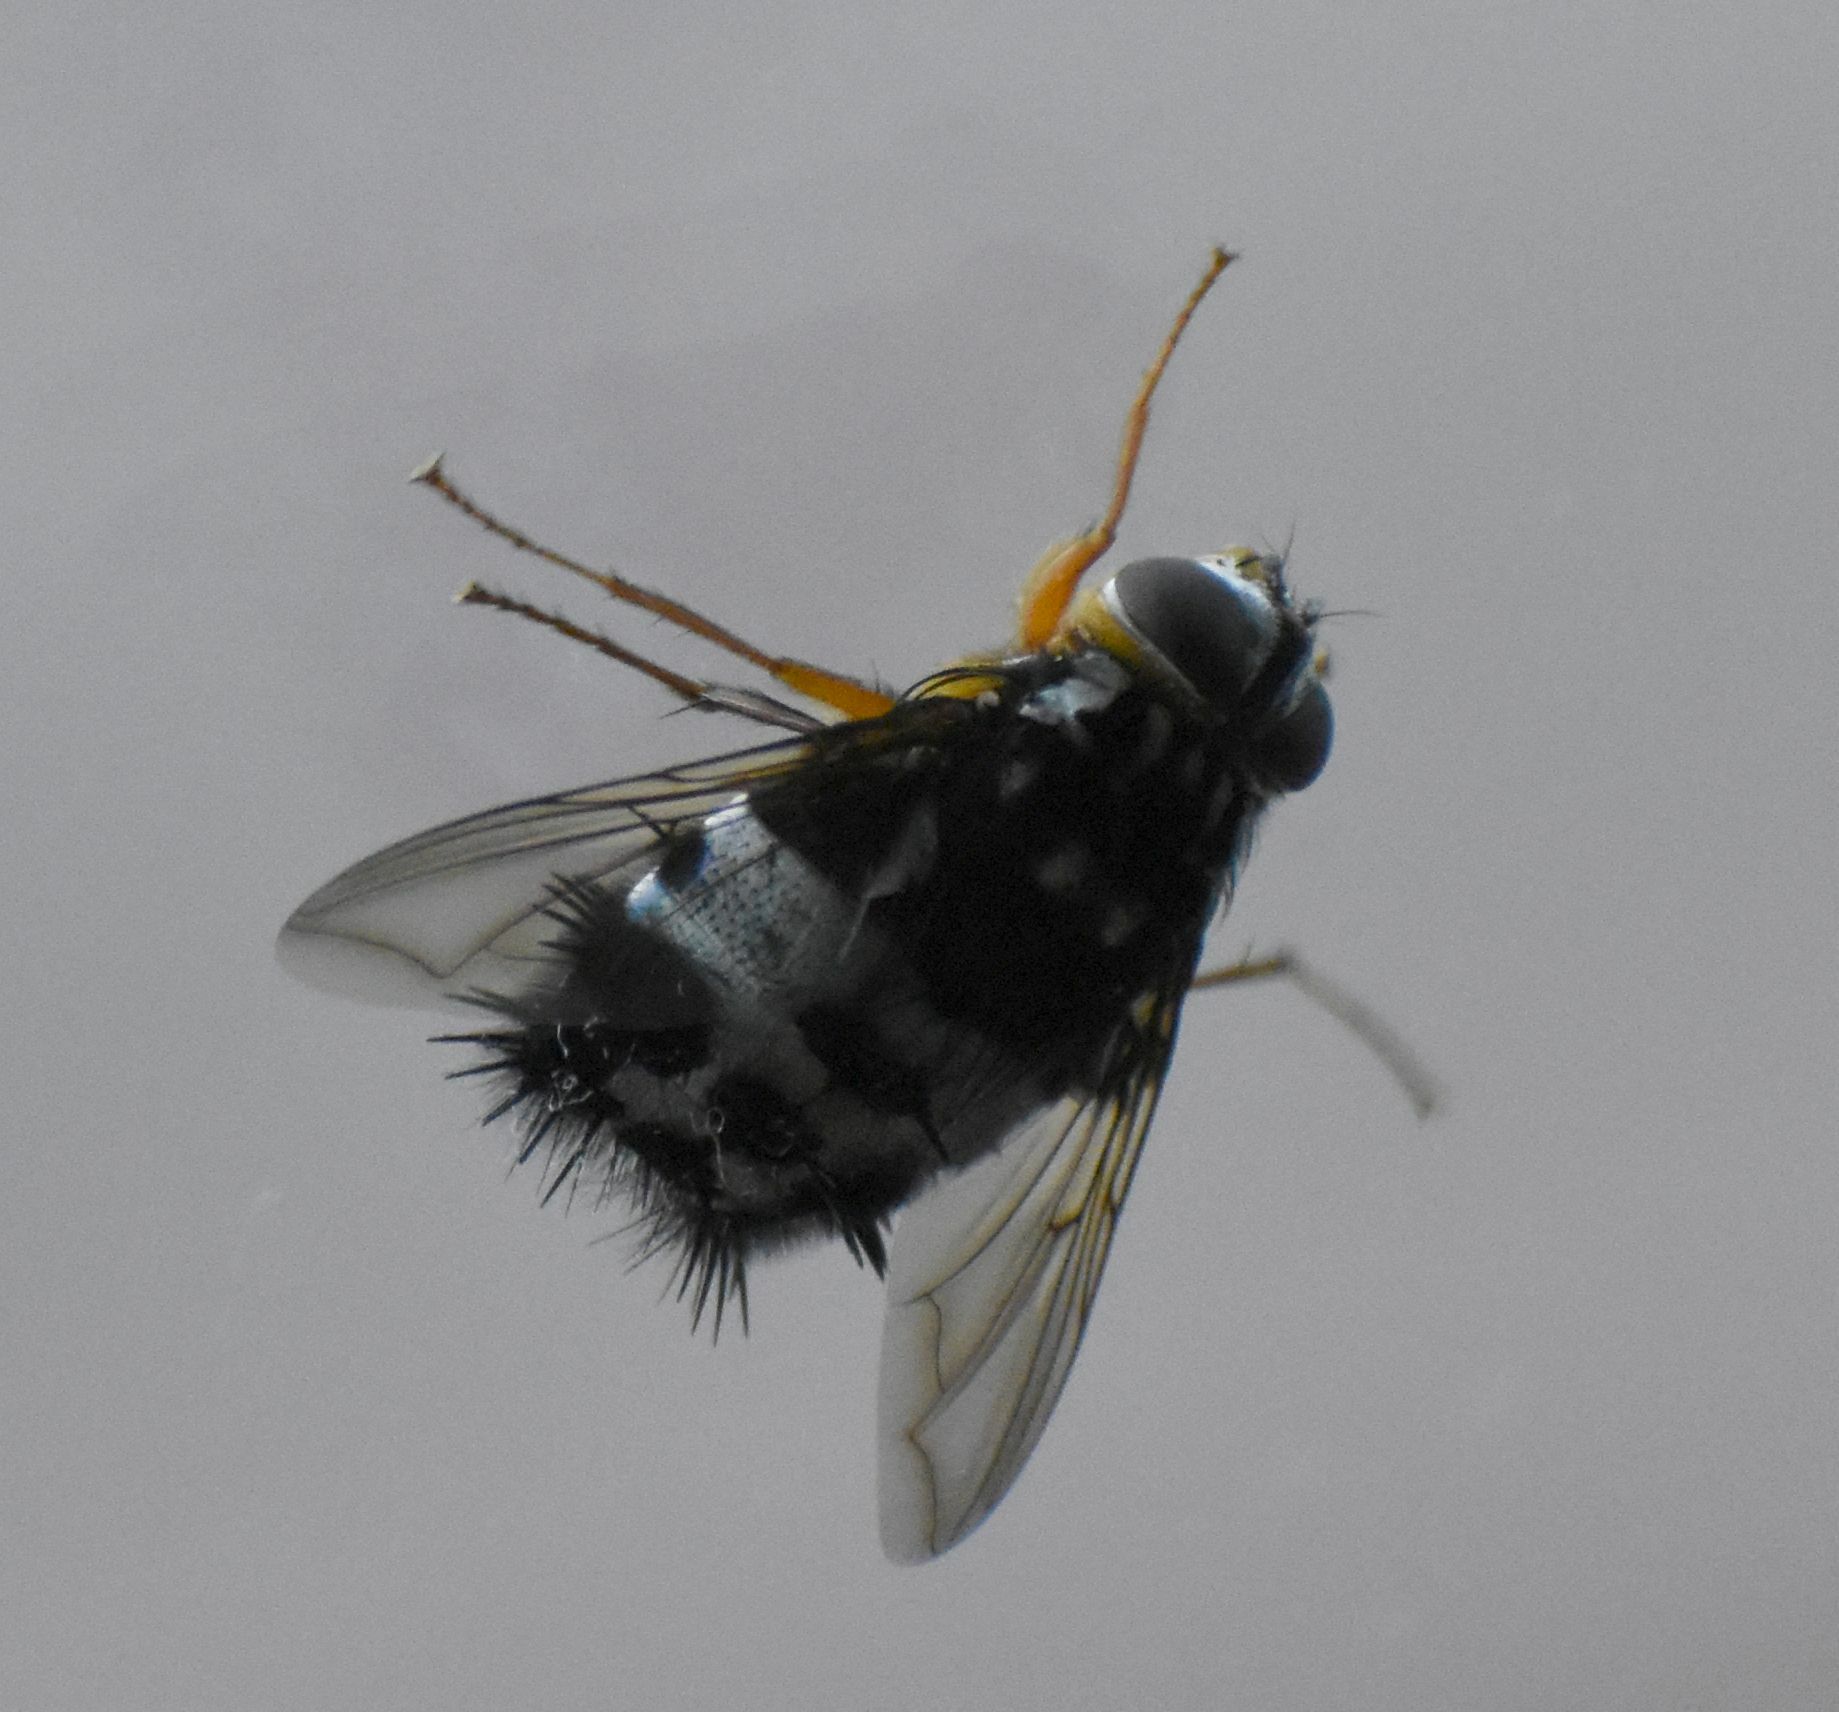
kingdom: Animalia
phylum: Arthropoda
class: Insecta
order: Diptera
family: Tachinidae
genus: Formosia
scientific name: Formosia speciosa
